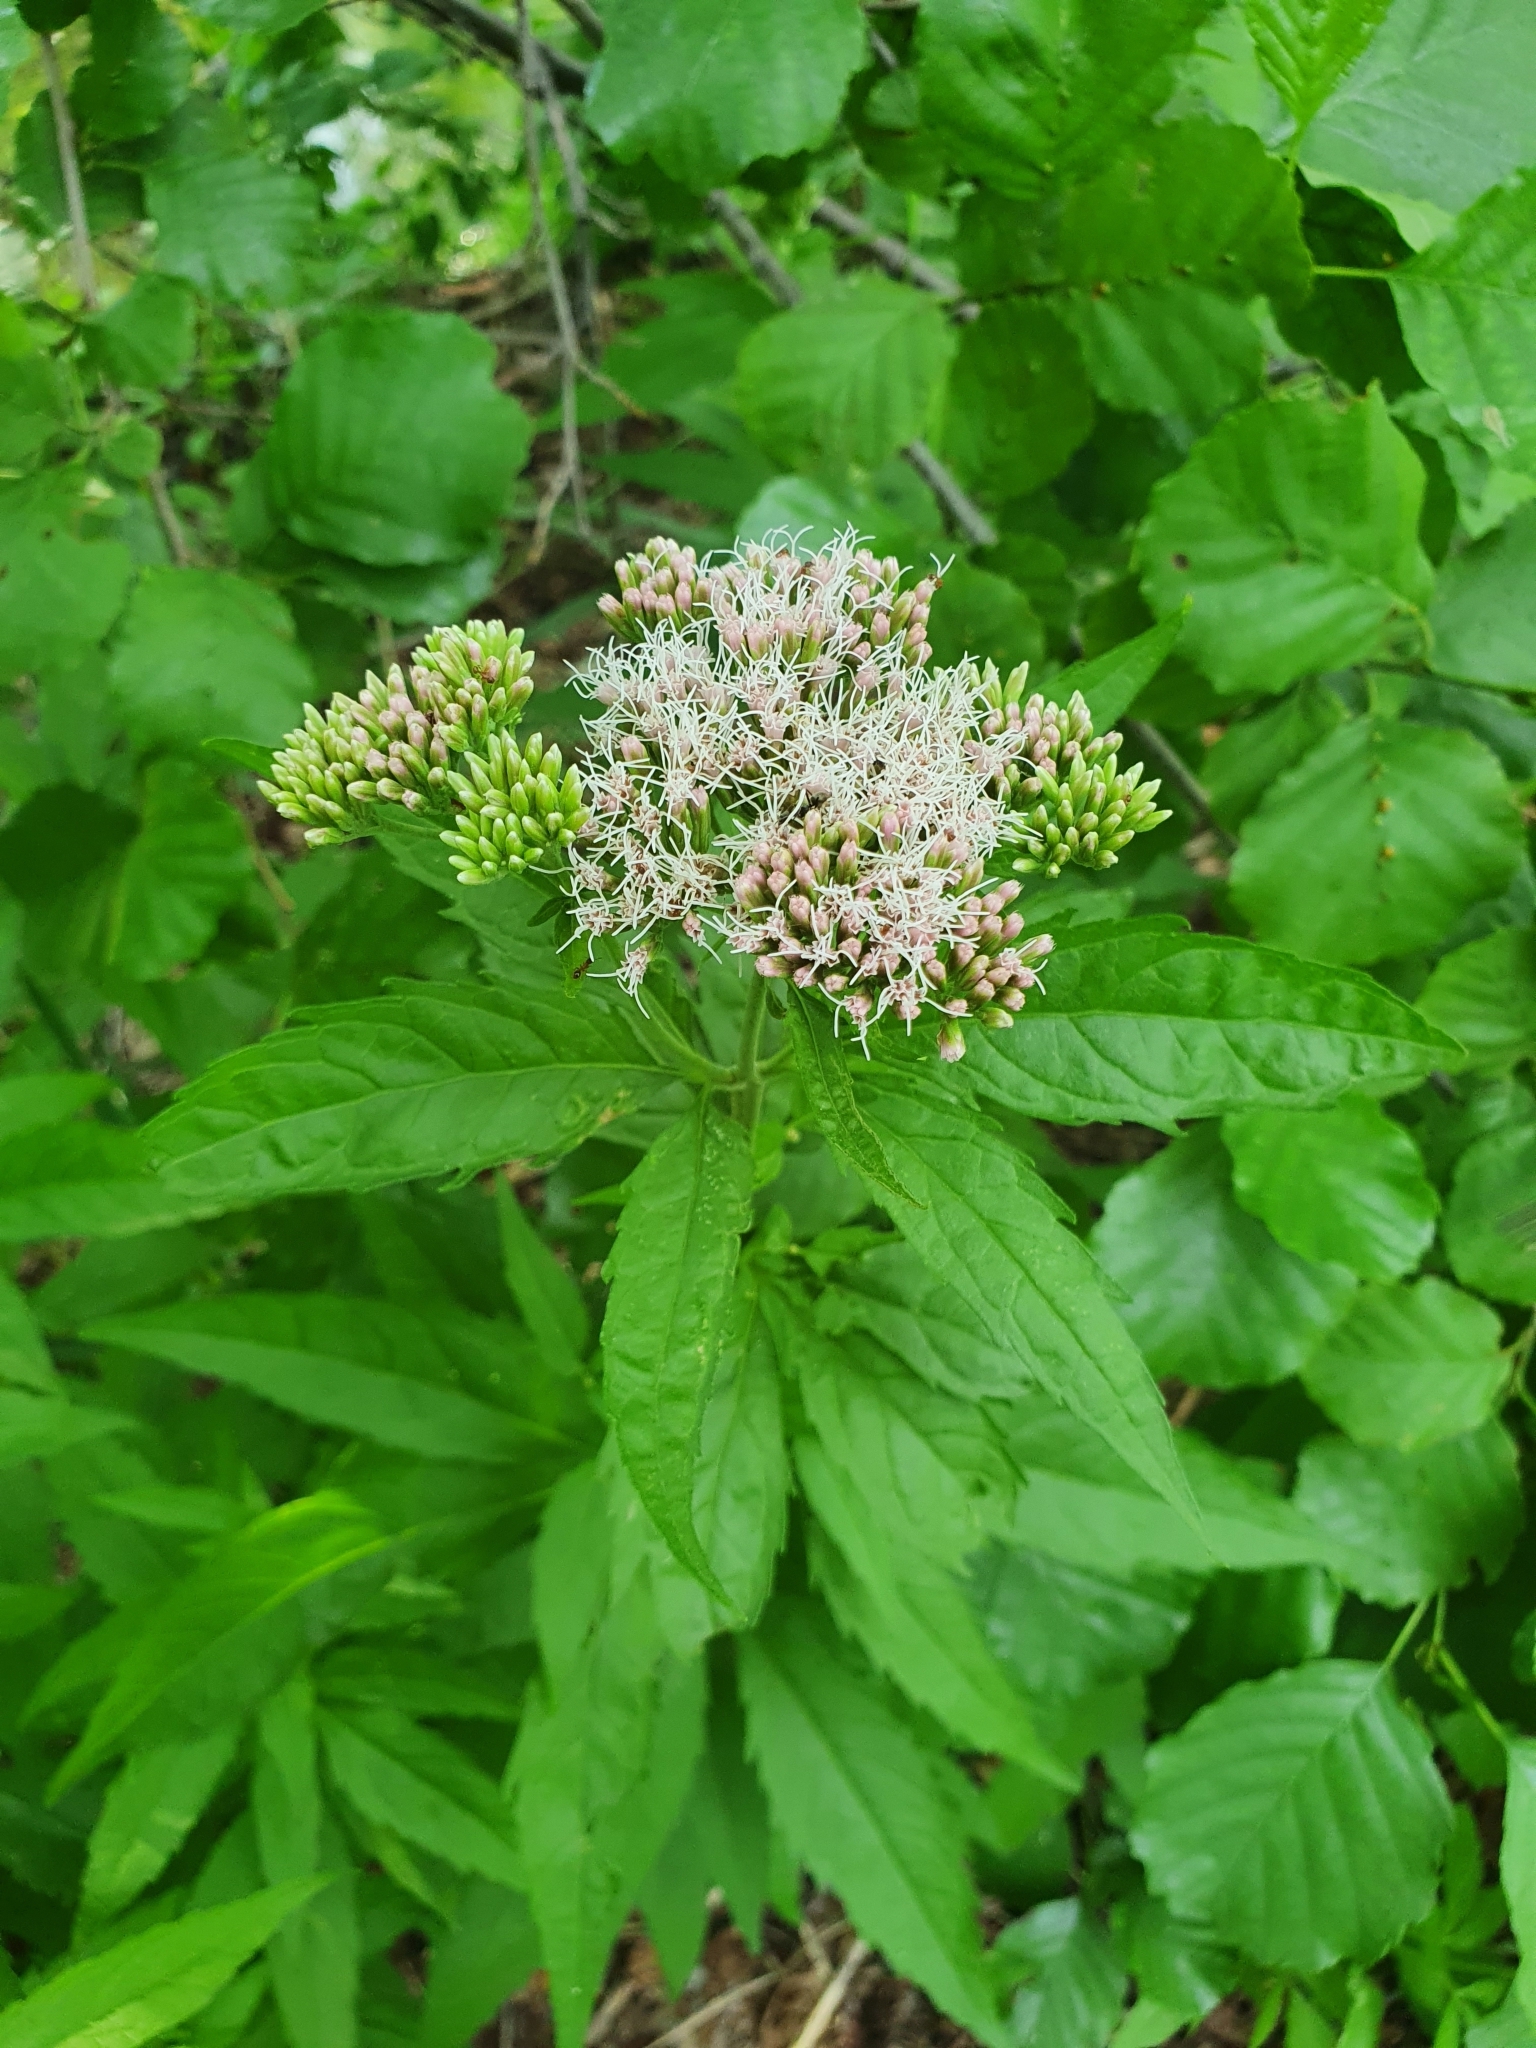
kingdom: Plantae
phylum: Tracheophyta
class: Magnoliopsida
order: Asterales
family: Asteraceae
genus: Eupatorium
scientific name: Eupatorium cannabinum
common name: Hemp-agrimony
